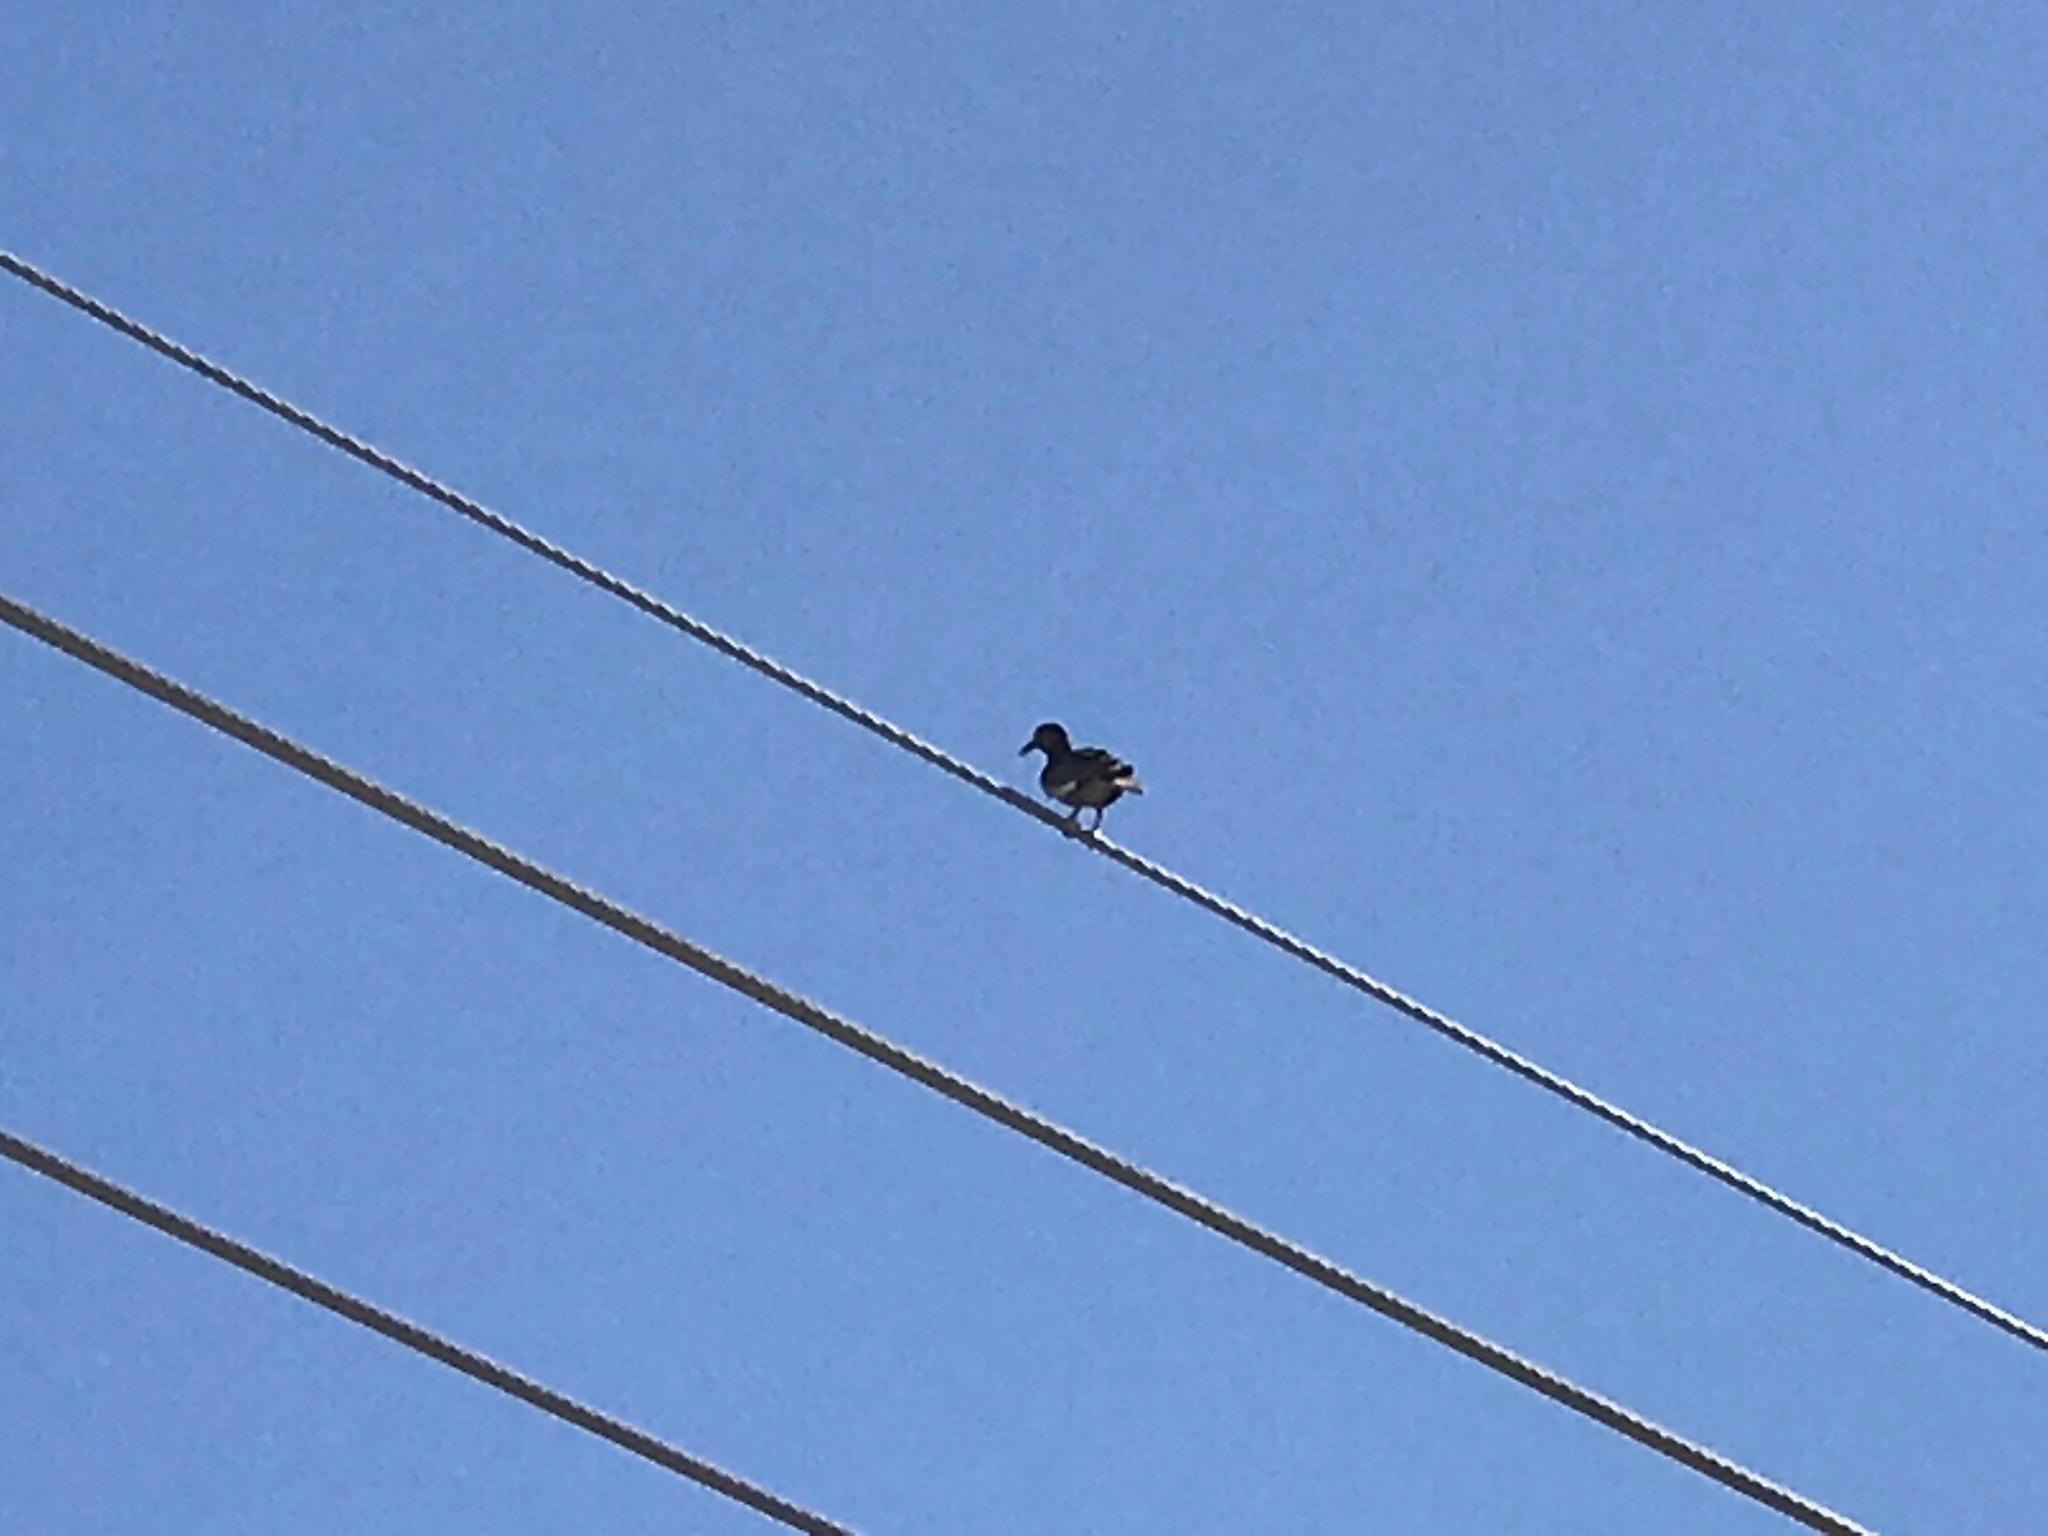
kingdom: Animalia
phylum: Chordata
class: Aves
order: Columbiformes
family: Columbidae
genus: Zenaida
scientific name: Zenaida asiatica
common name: White-winged dove
